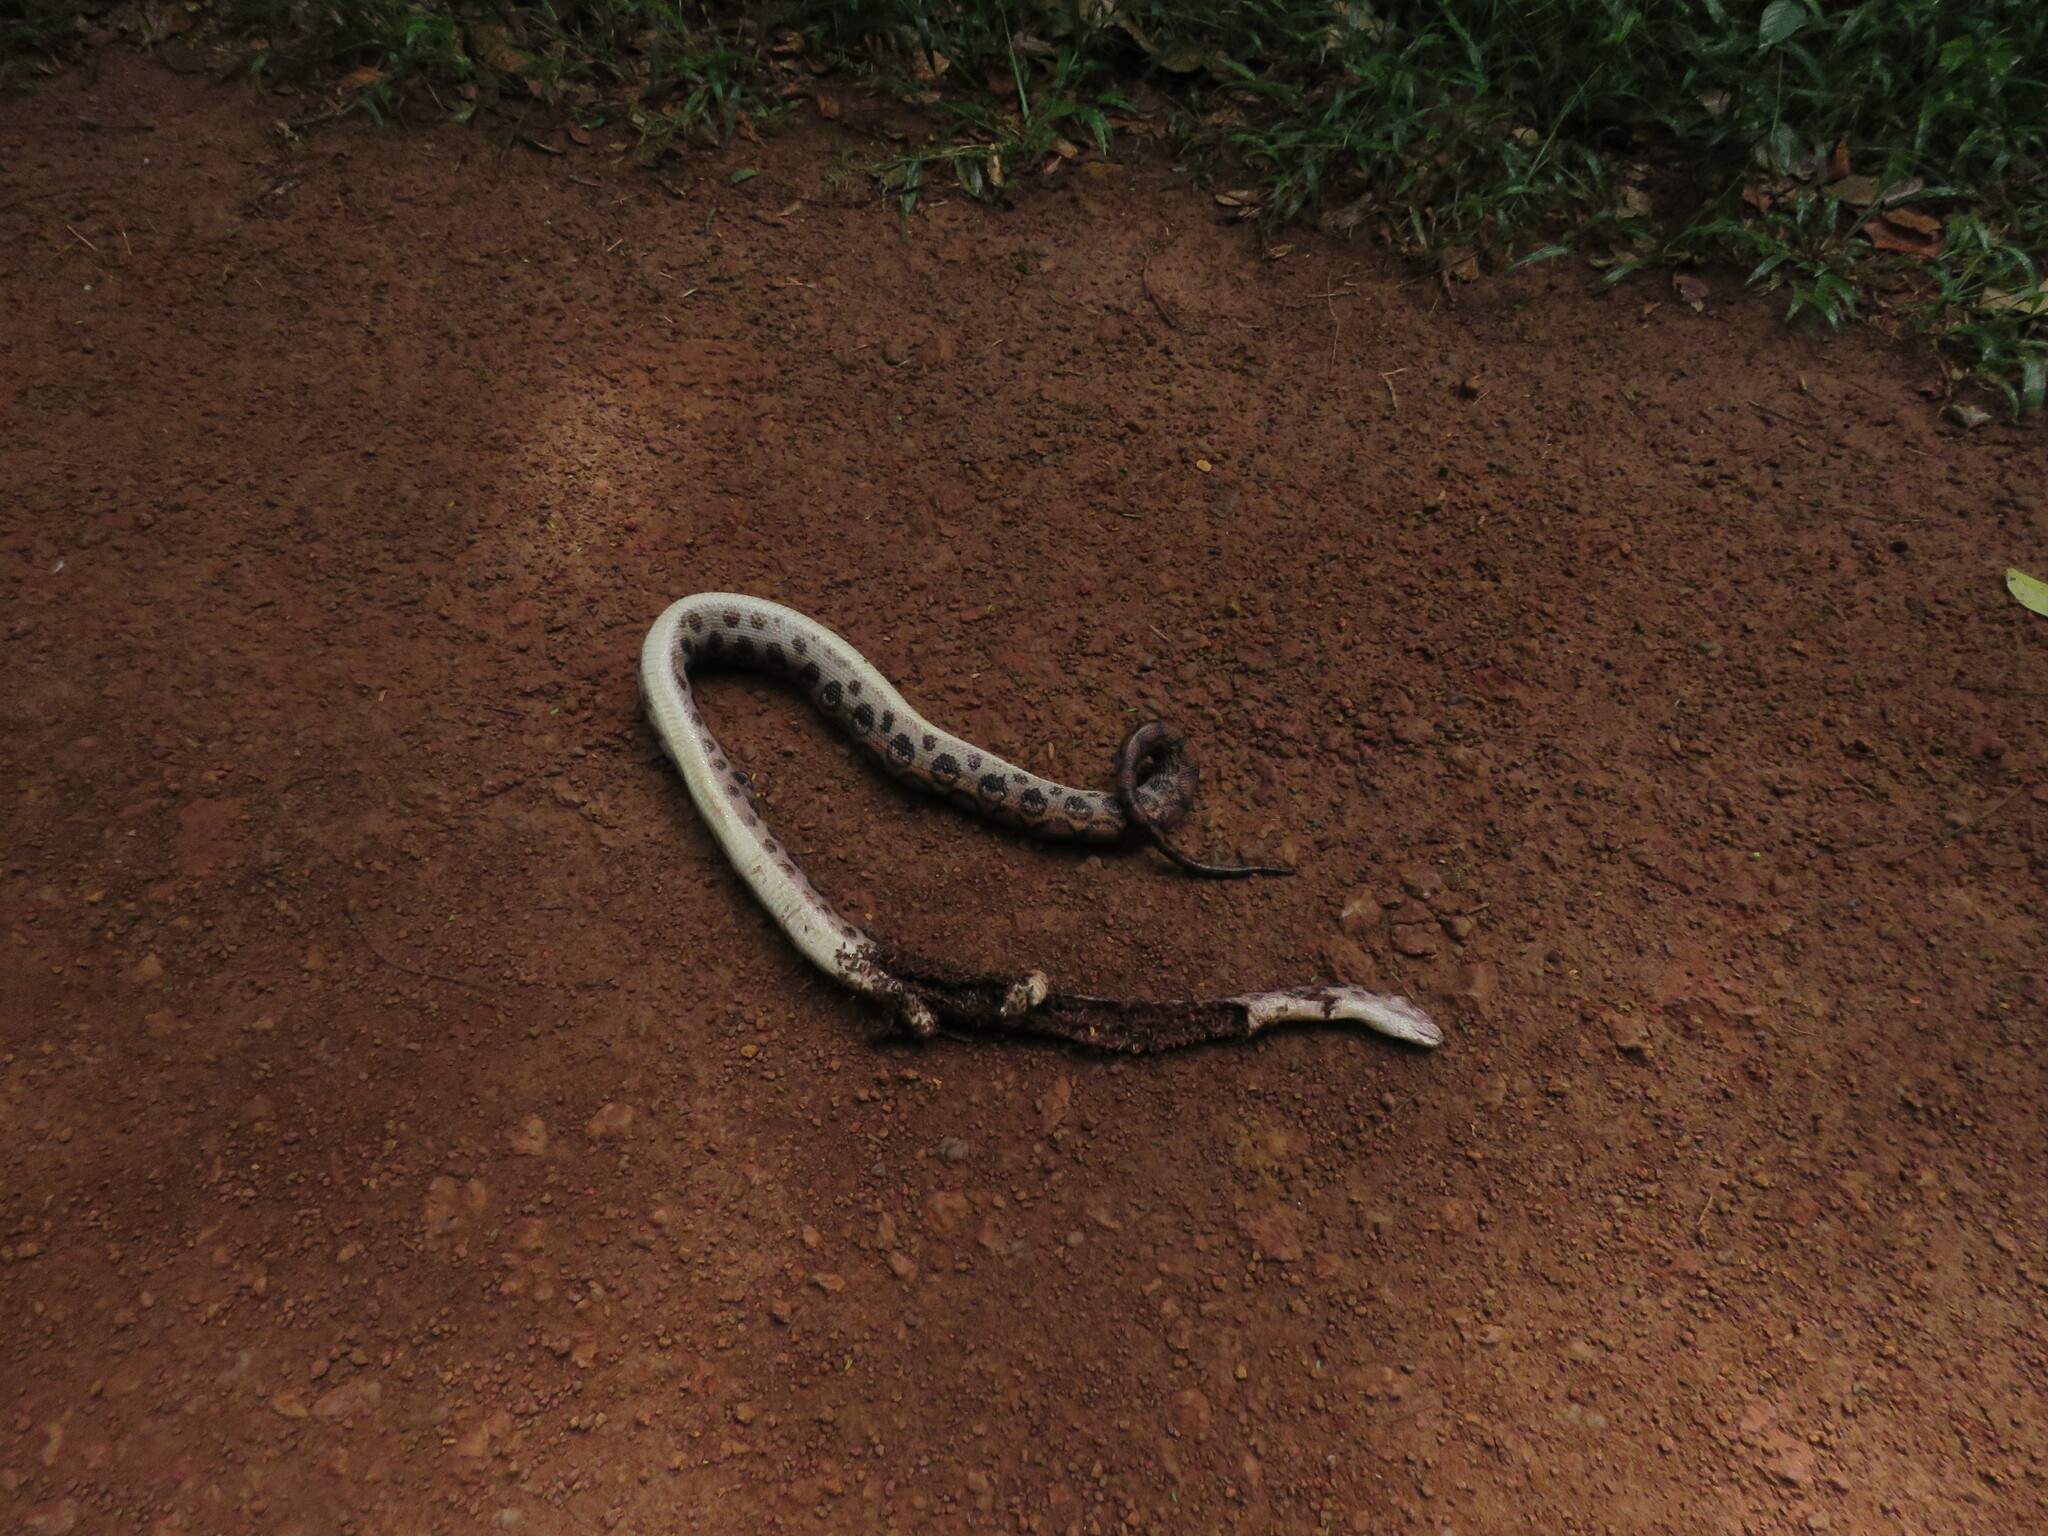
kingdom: Animalia
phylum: Chordata
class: Squamata
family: Boidae
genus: Epicrates
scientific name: Epicrates cenchria
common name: Rainbow boa
